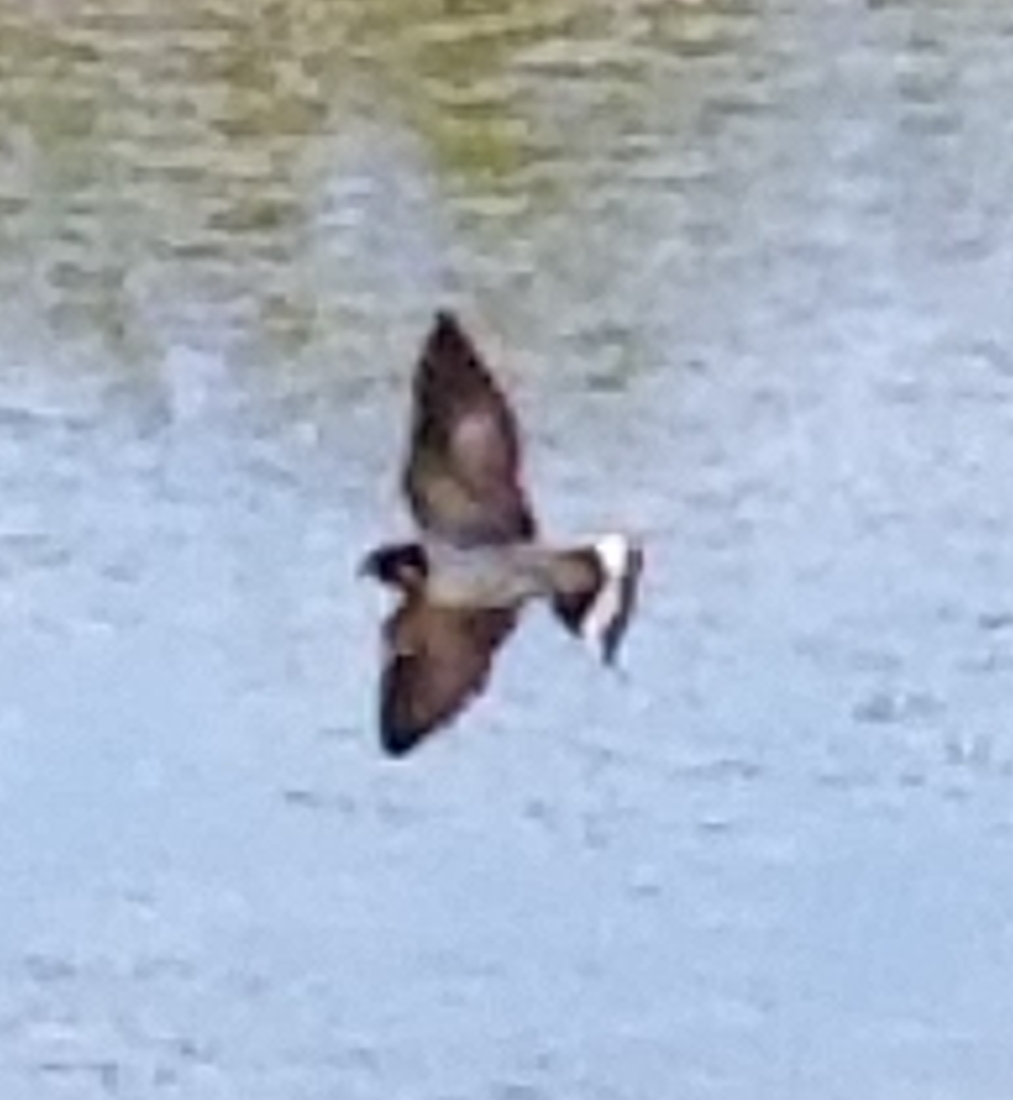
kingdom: Animalia
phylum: Chordata
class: Aves
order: Passeriformes
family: Hirundinidae
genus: Hirundo
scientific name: Hirundo rustica
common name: Barn swallow
